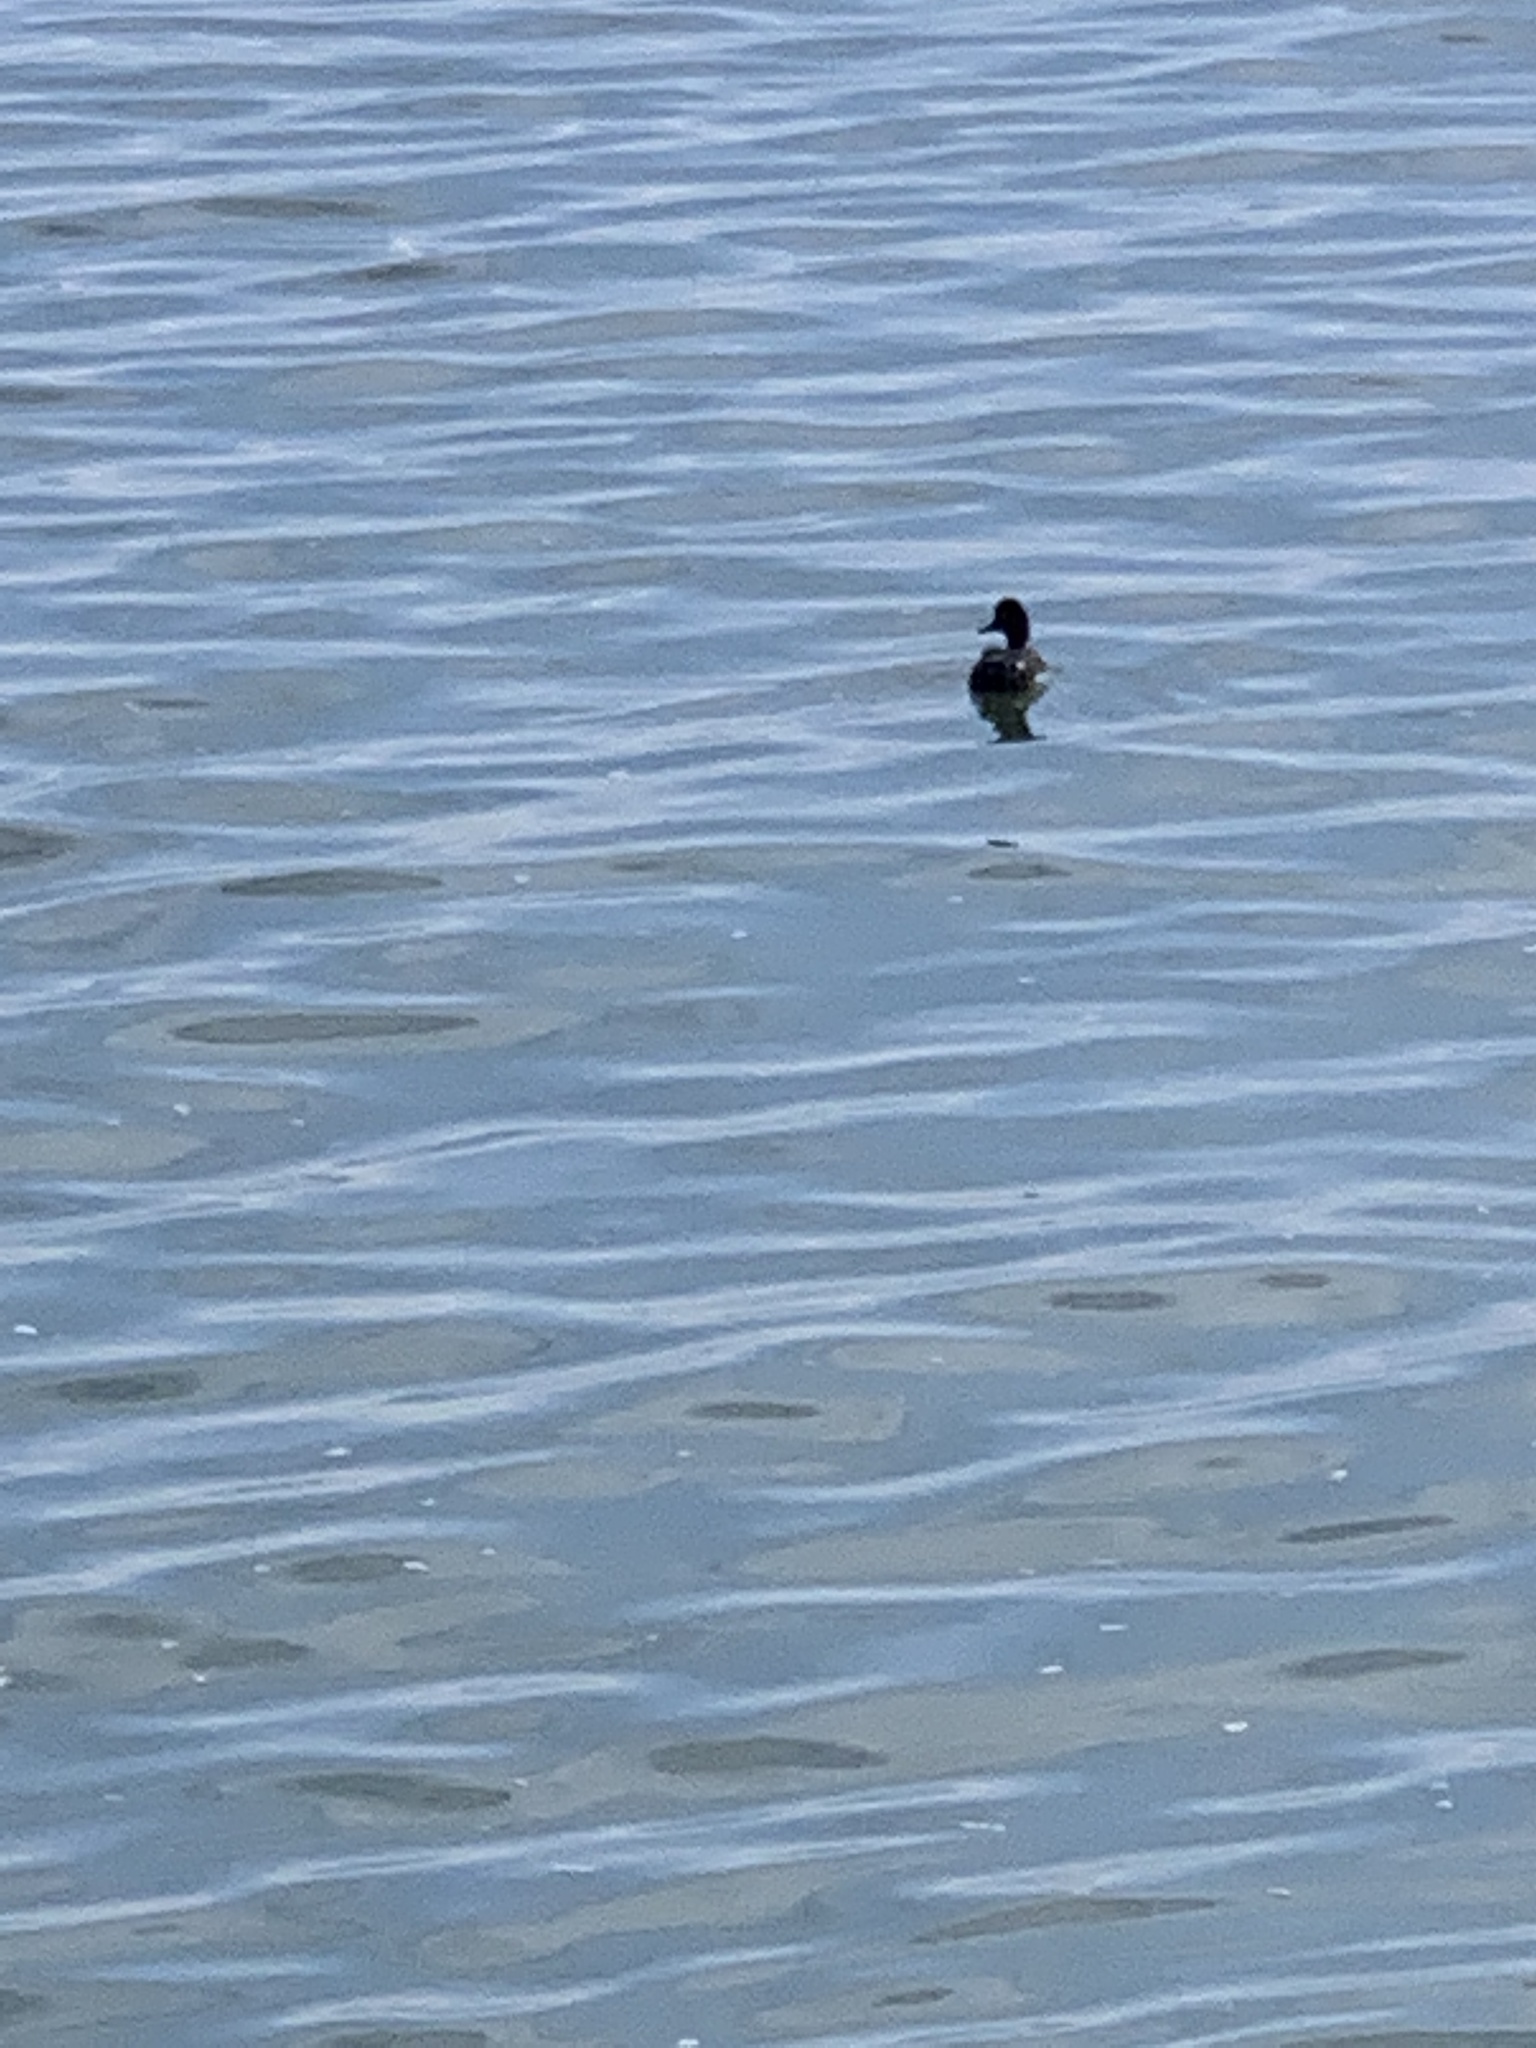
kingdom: Animalia
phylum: Chordata
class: Aves
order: Anseriformes
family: Anatidae
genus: Anas
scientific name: Anas platyrhynchos
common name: Mallard
